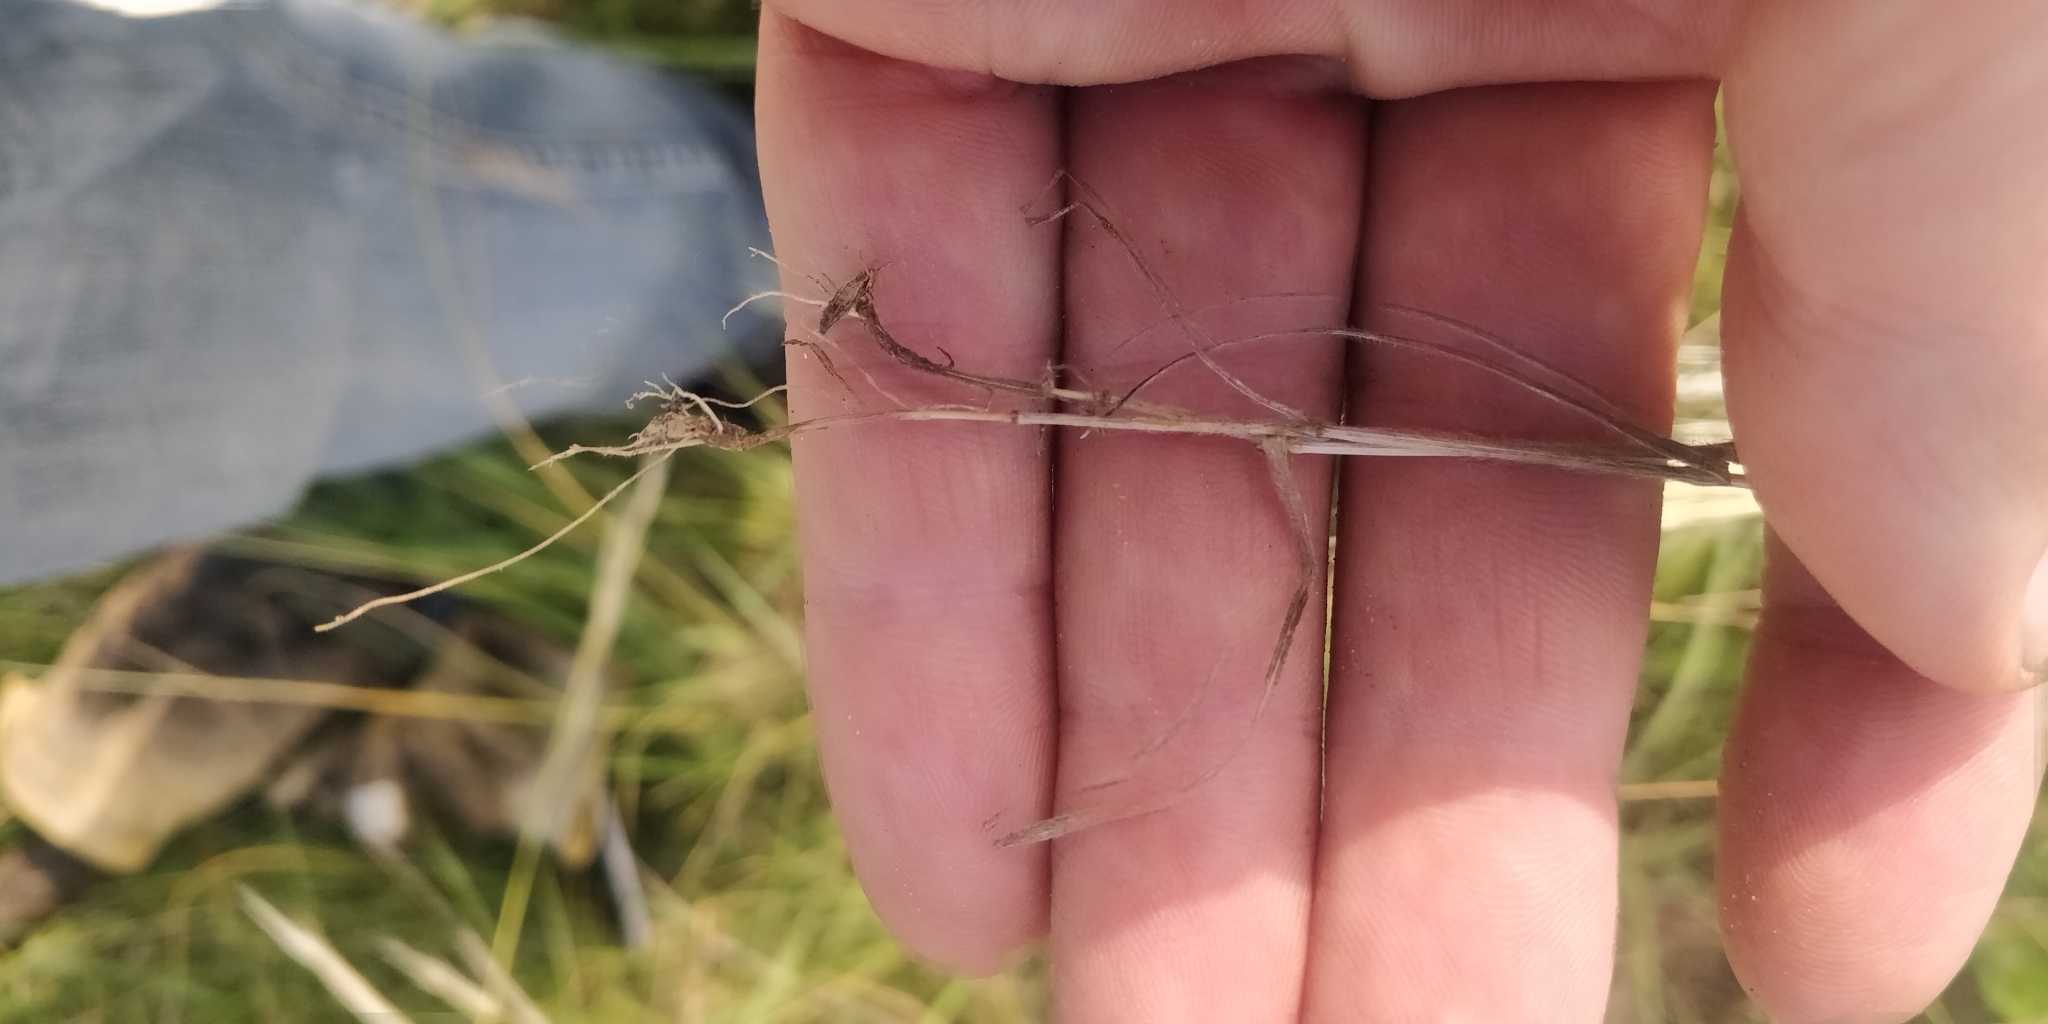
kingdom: Plantae
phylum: Tracheophyta
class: Liliopsida
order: Poales
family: Poaceae
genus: Bromus
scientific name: Bromus japonicus
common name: Japanese brome
